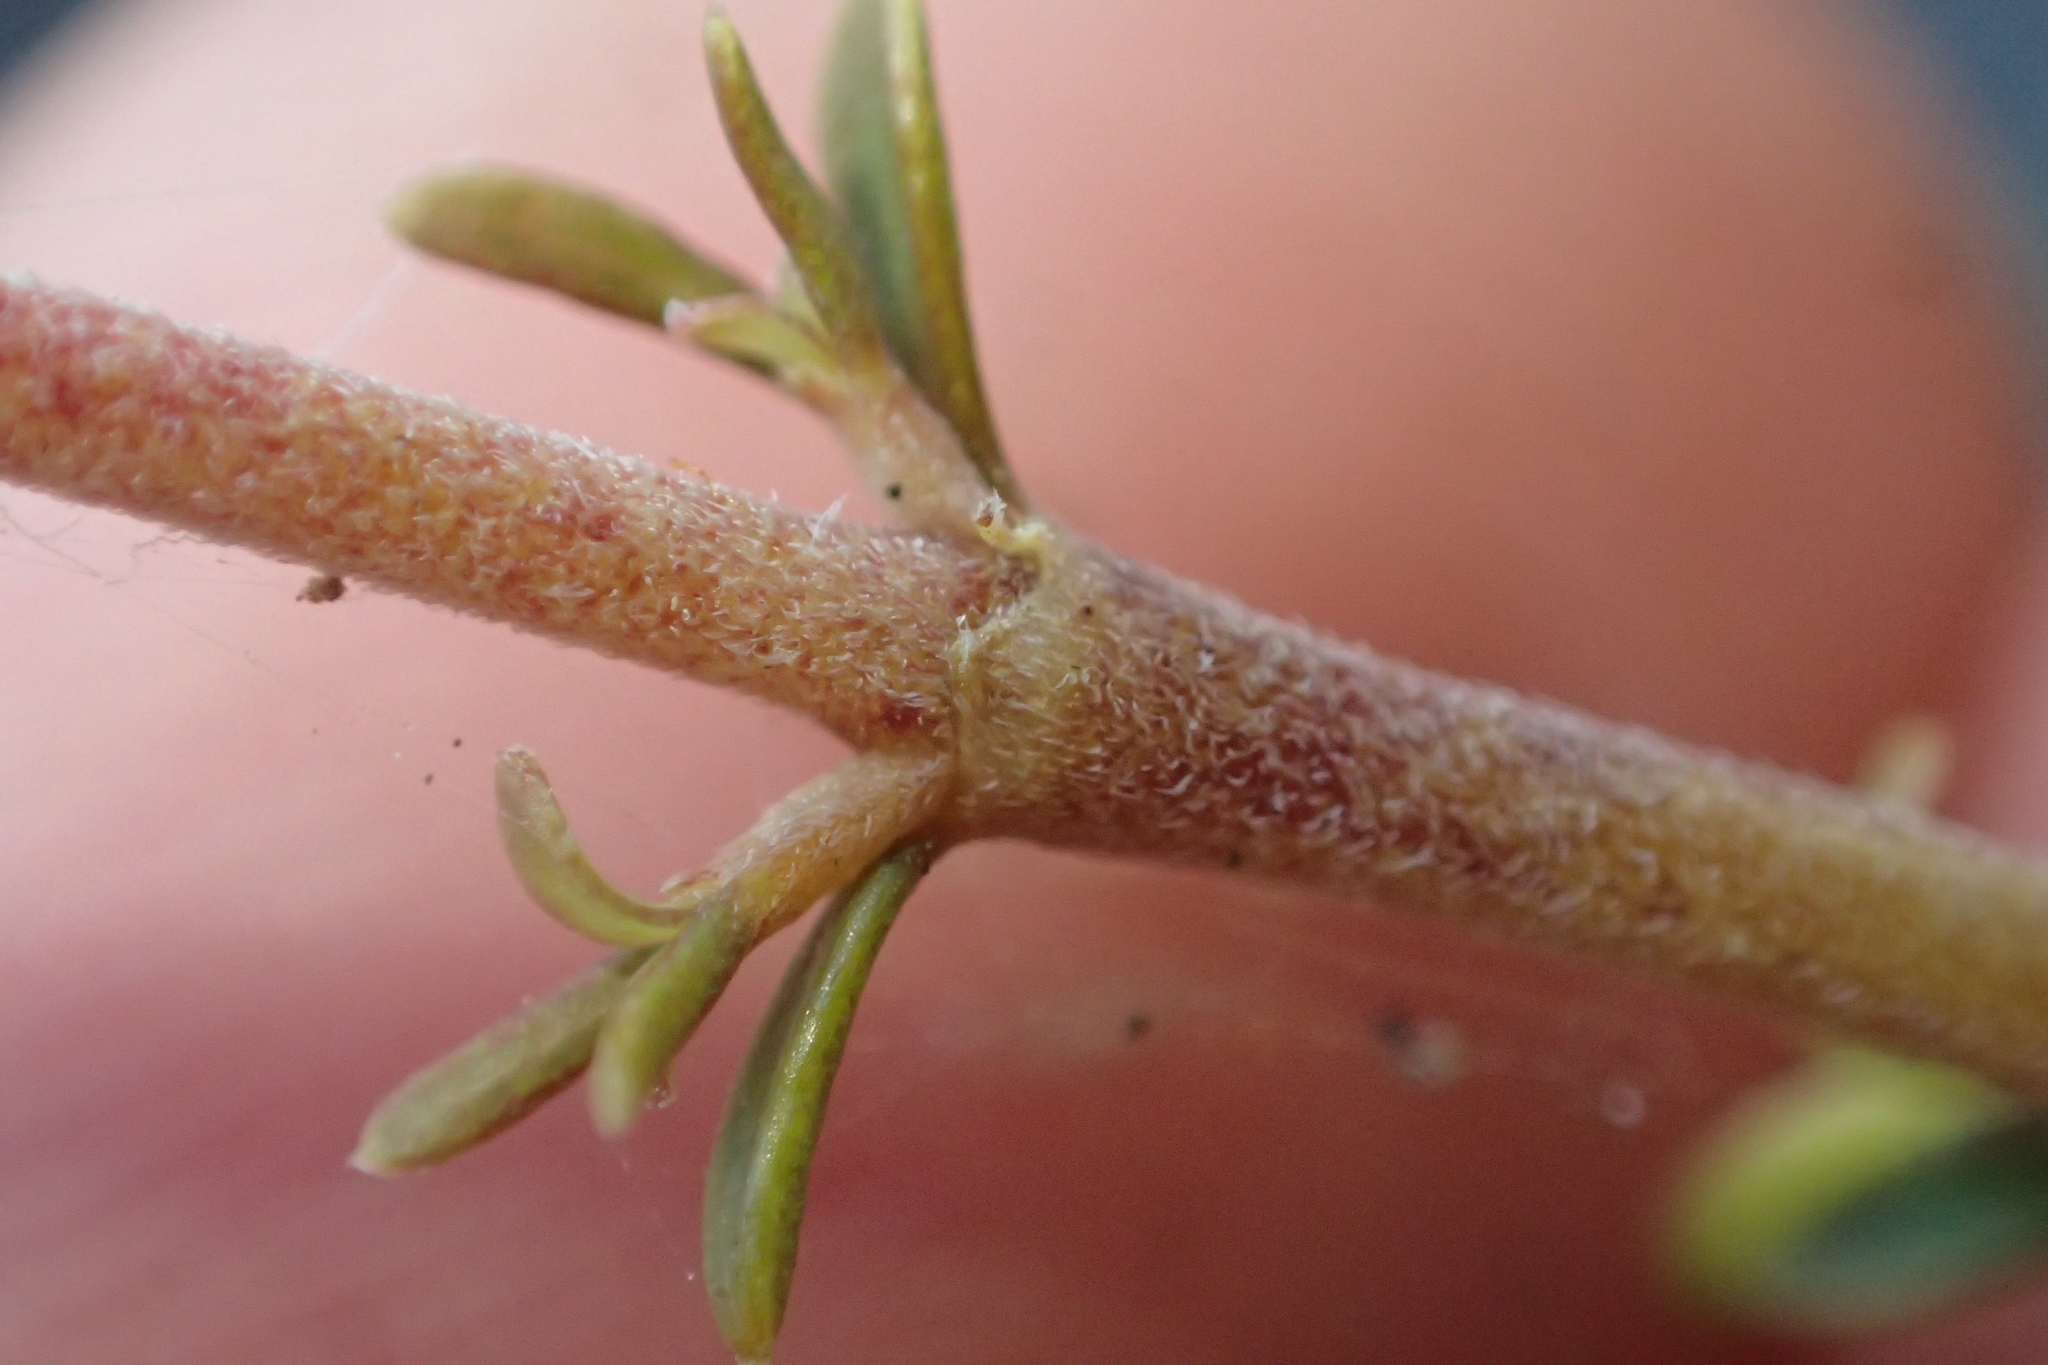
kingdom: Plantae
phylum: Tracheophyta
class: Magnoliopsida
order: Gentianales
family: Rubiaceae
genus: Coprosma
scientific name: Coprosma rhamnoides
